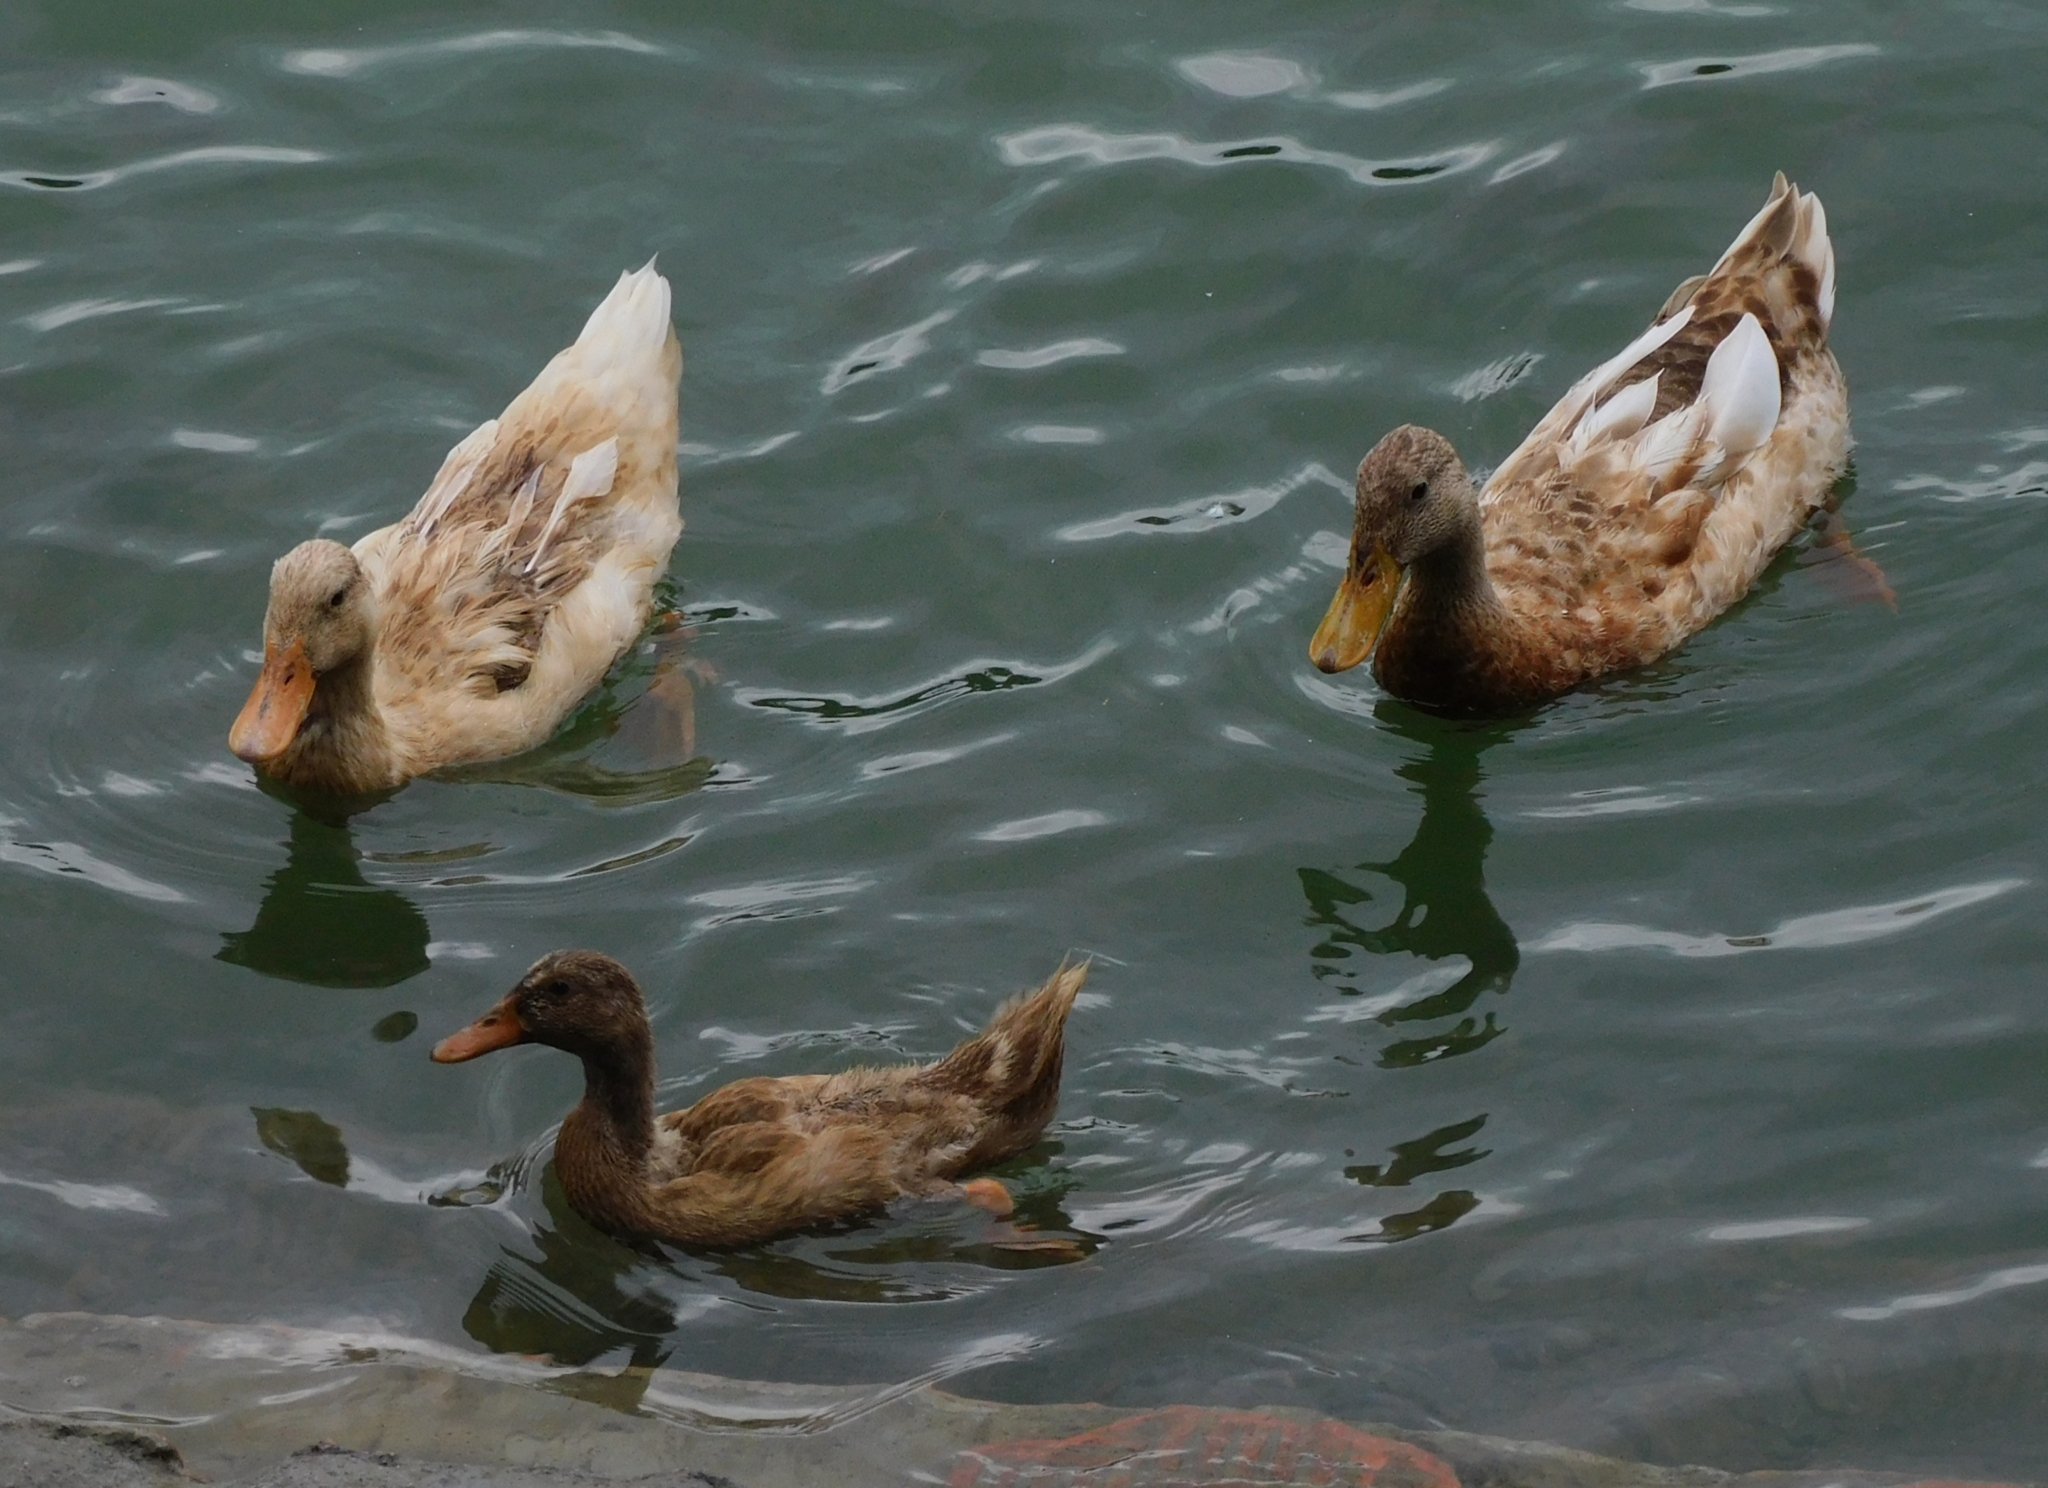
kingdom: Animalia
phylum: Chordata
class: Aves
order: Anseriformes
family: Anatidae
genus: Anas
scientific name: Anas platyrhynchos
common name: Mallard
